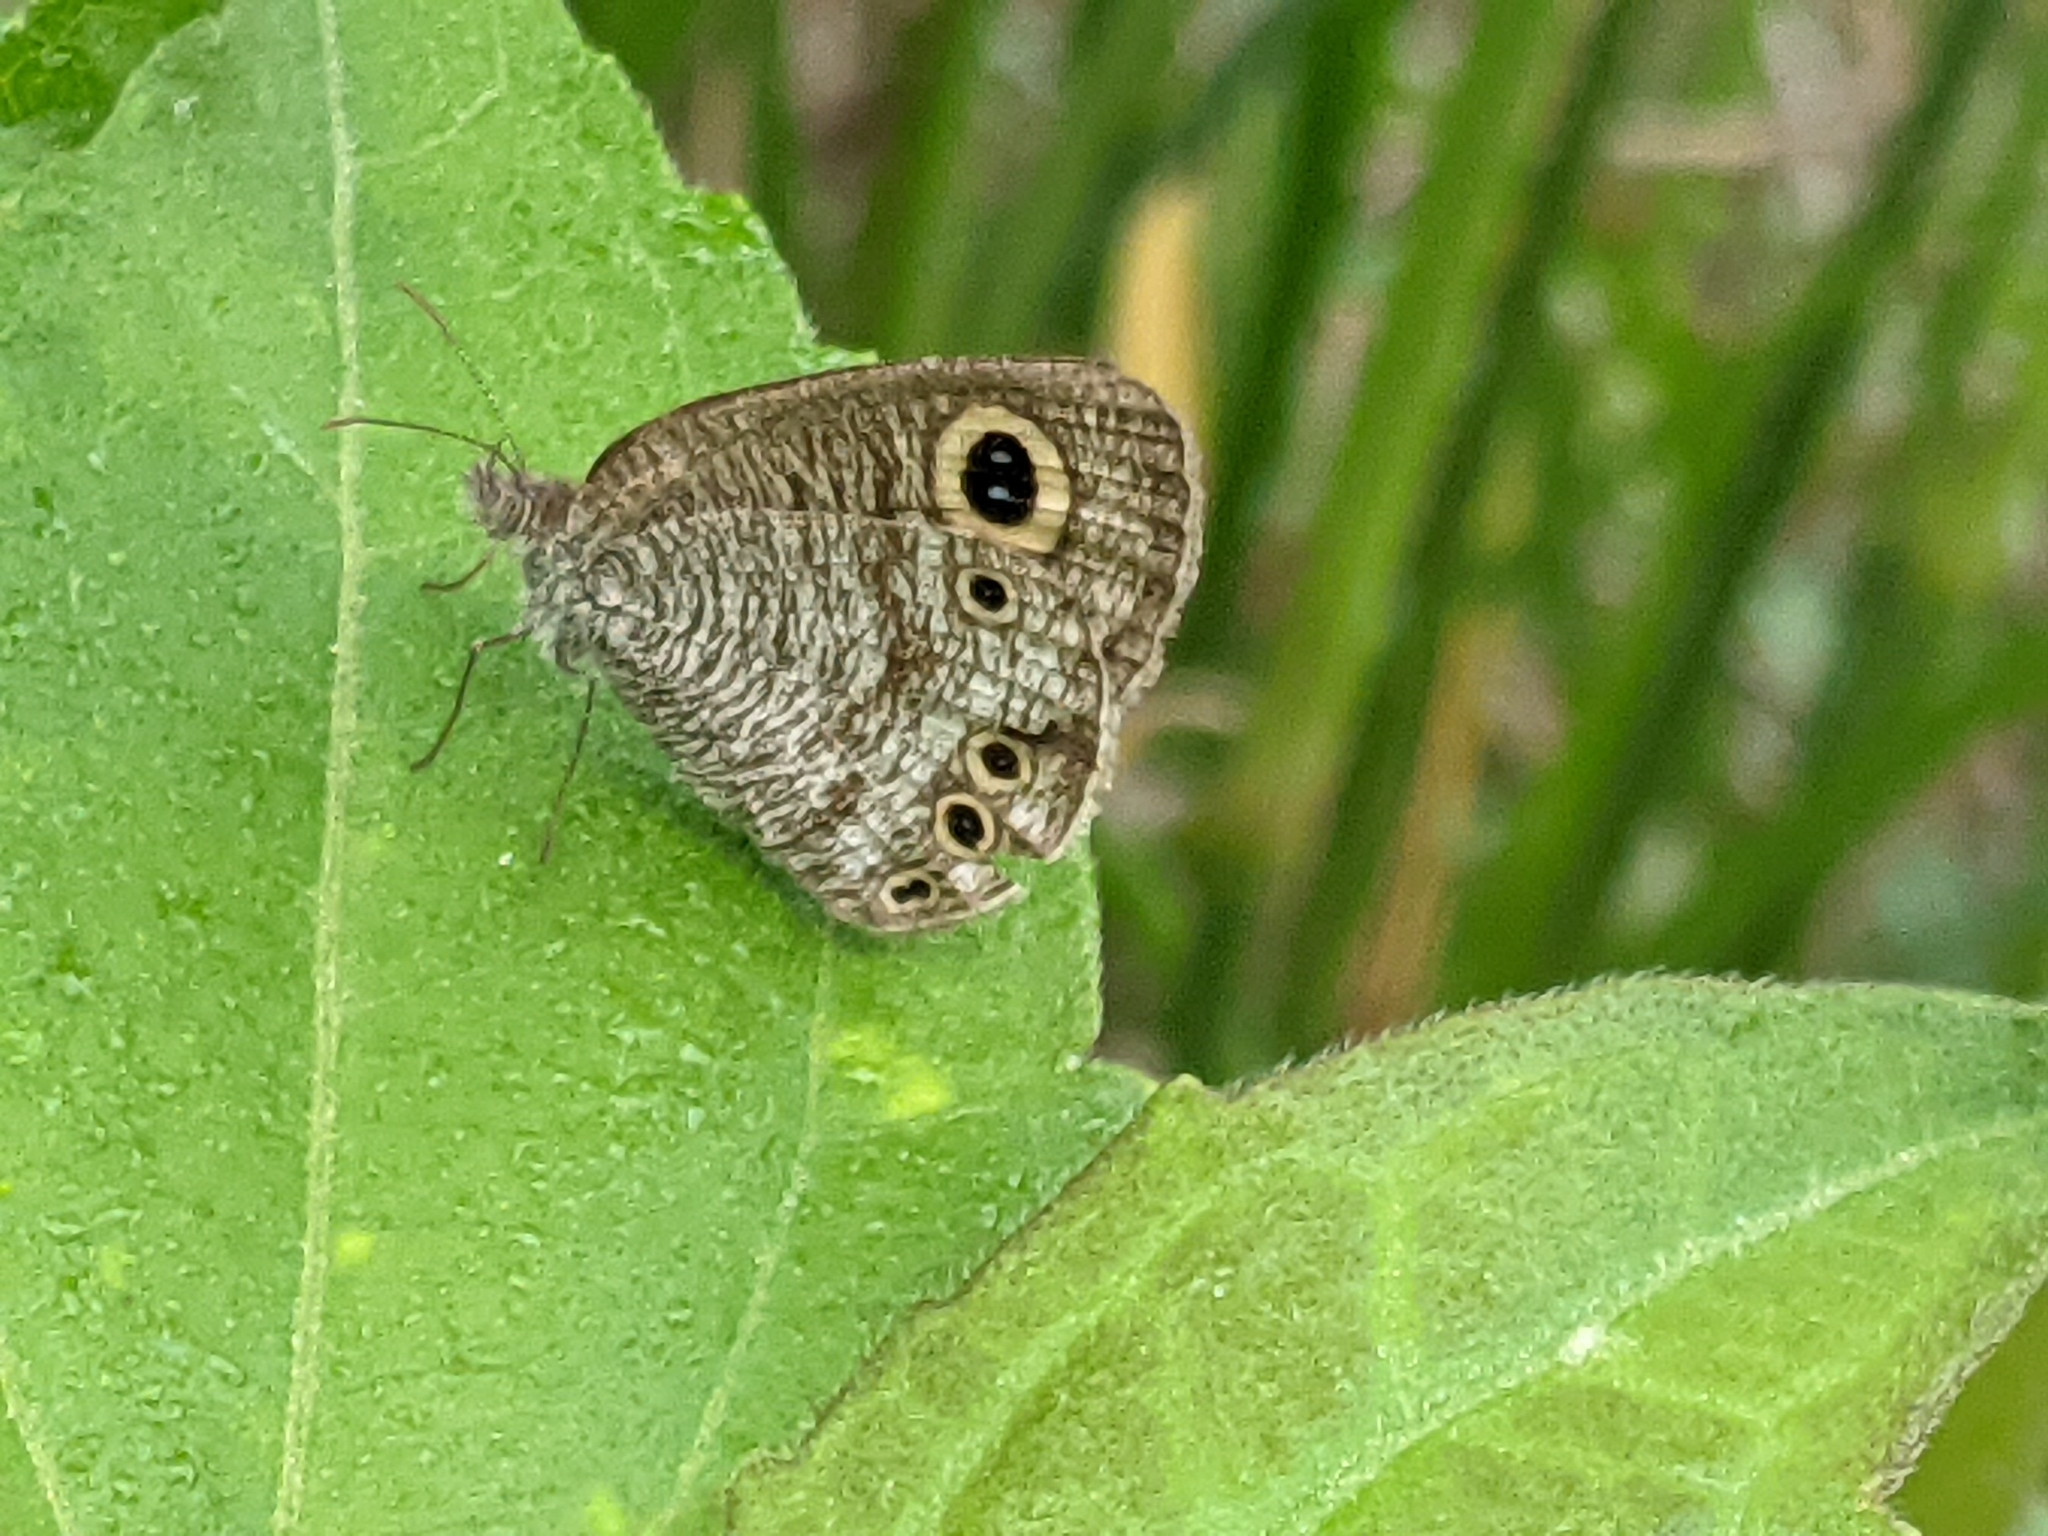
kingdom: Animalia
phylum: Arthropoda
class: Insecta
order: Lepidoptera
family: Nymphalidae
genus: Ypthima
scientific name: Ypthima huebneri
